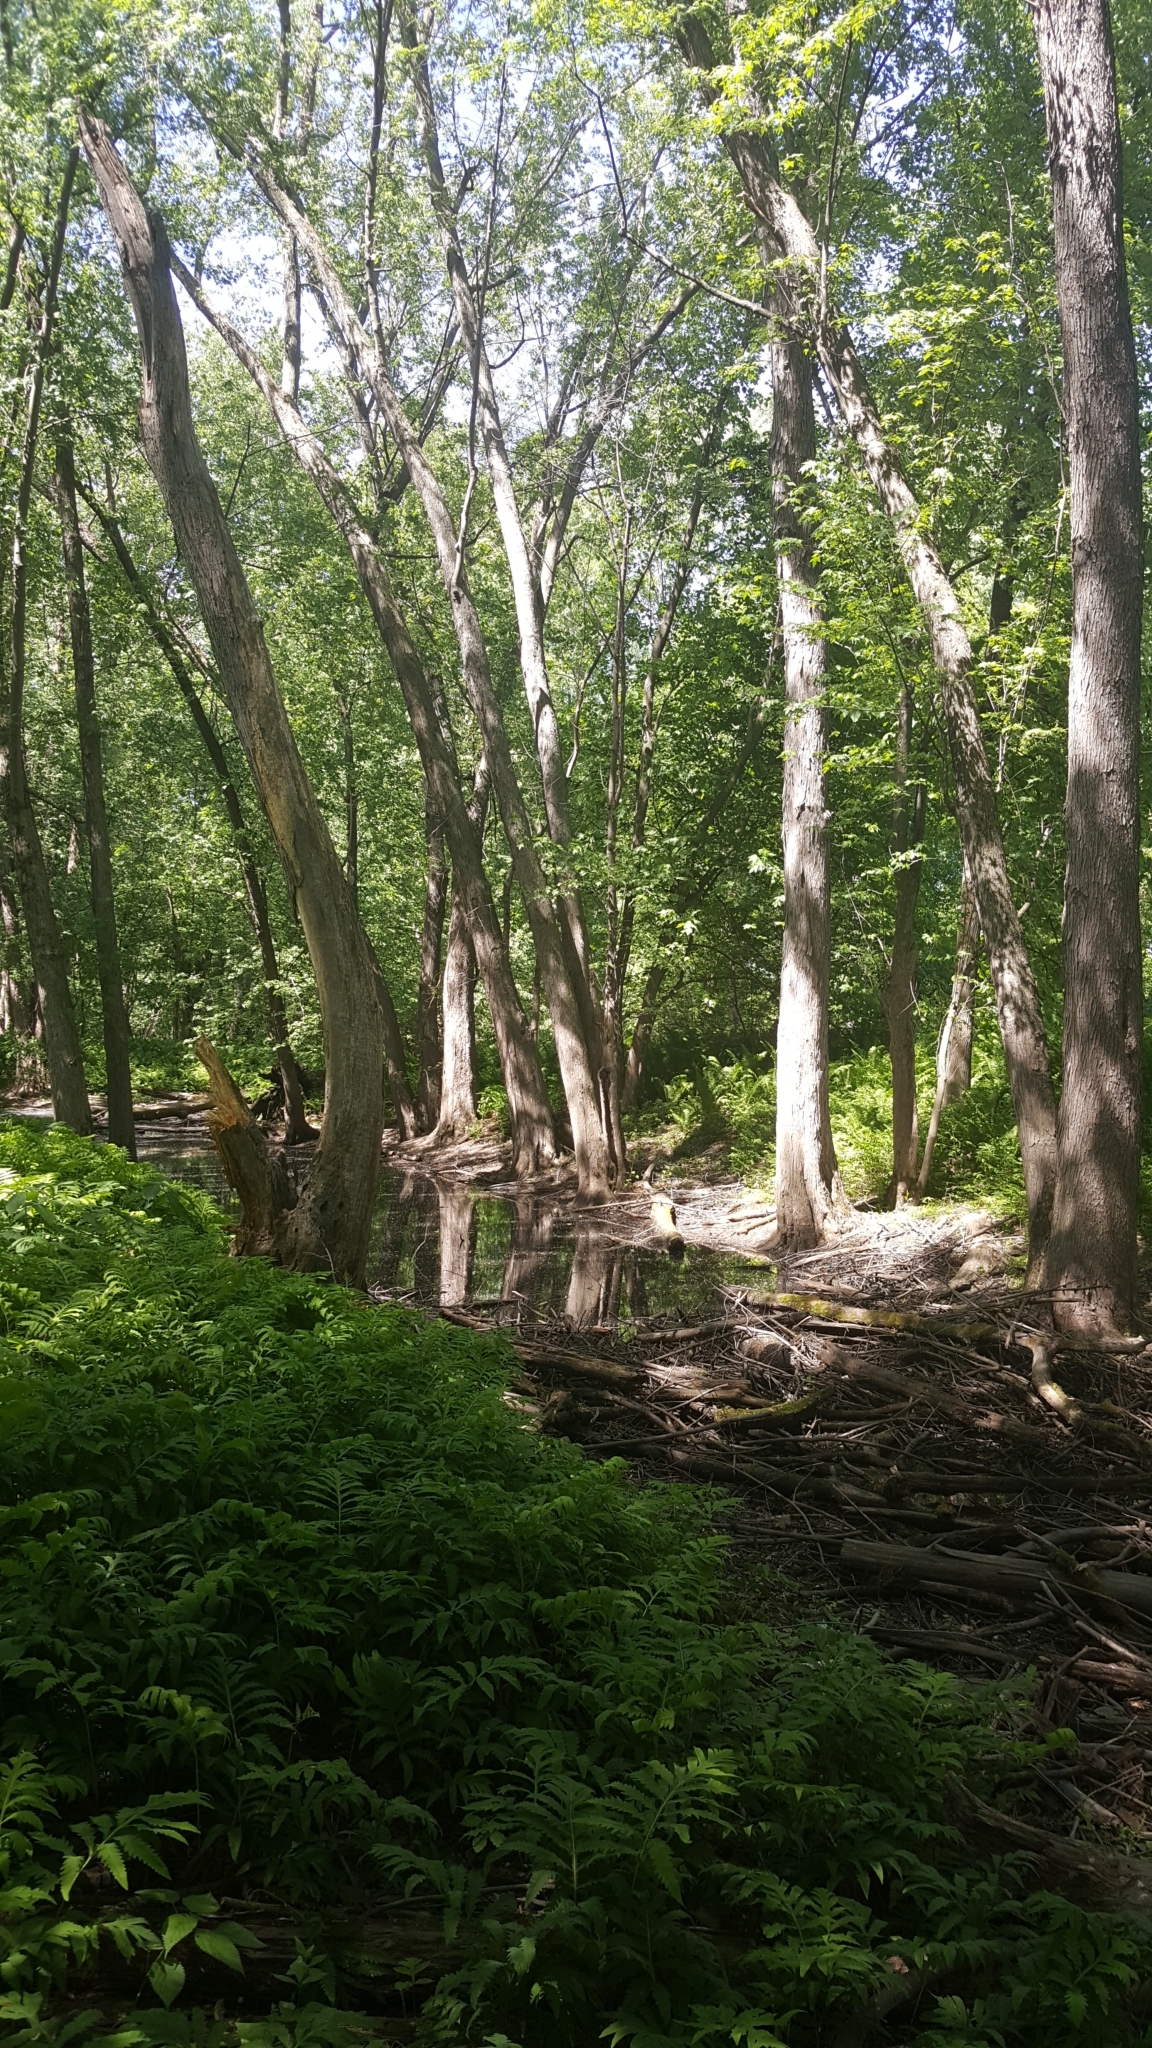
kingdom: Plantae
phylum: Tracheophyta
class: Magnoliopsida
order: Sapindales
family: Sapindaceae
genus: Acer
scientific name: Acer saccharinum
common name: Silver maple
